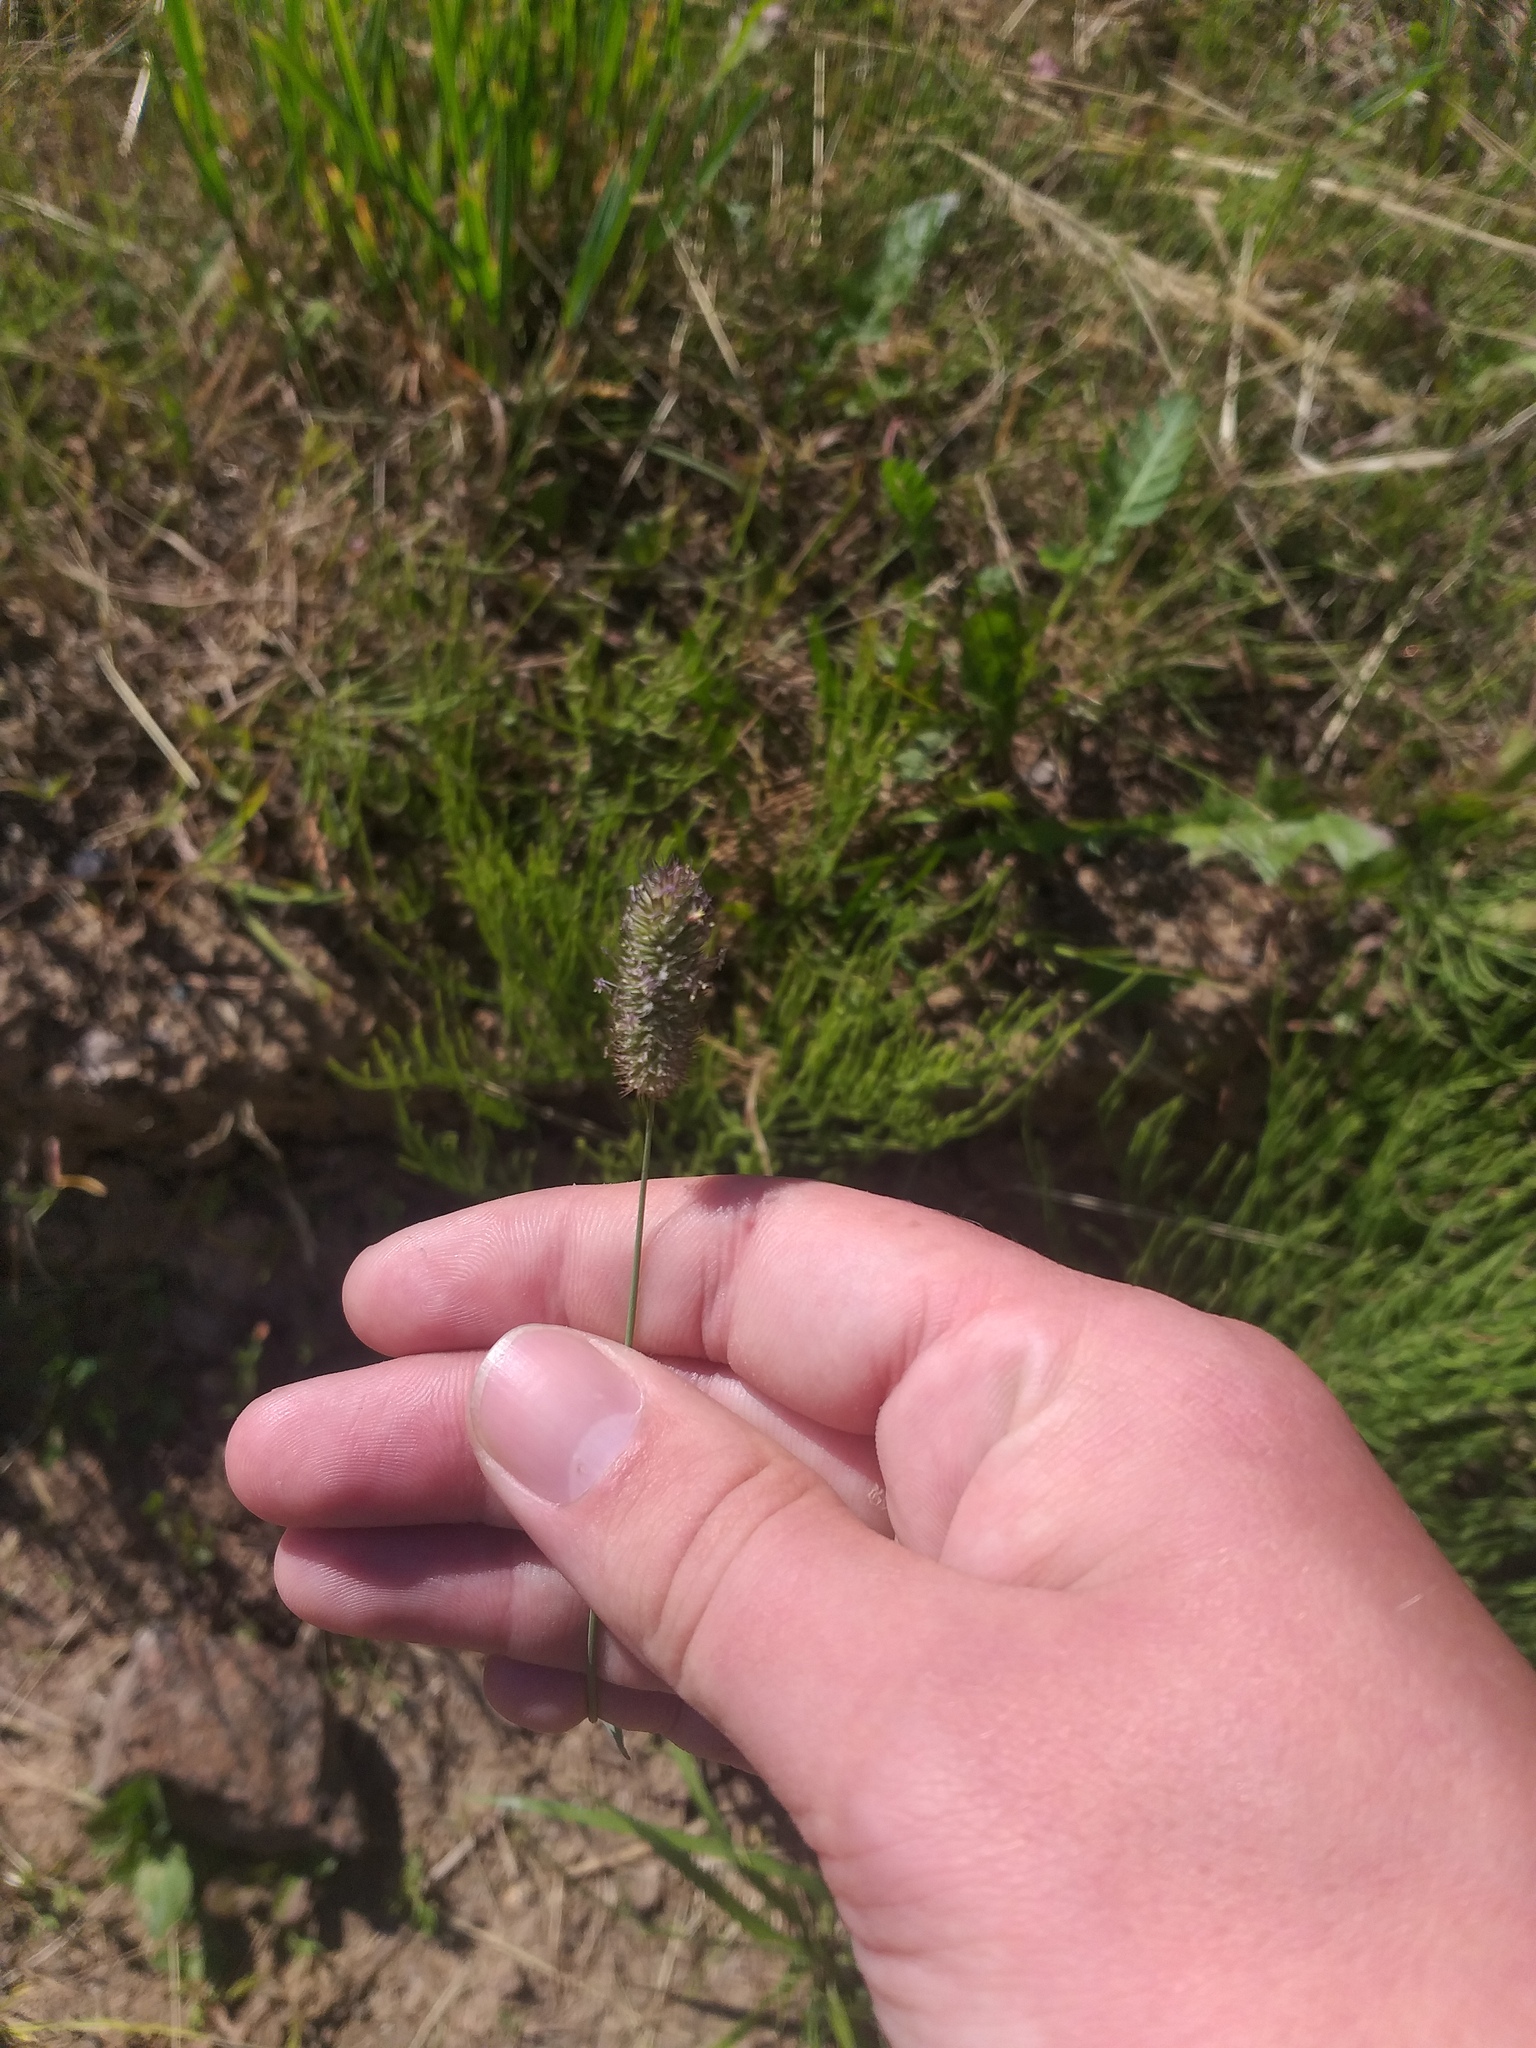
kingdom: Plantae
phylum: Tracheophyta
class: Liliopsida
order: Poales
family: Poaceae
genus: Phleum
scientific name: Phleum pratense
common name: Timothy grass
